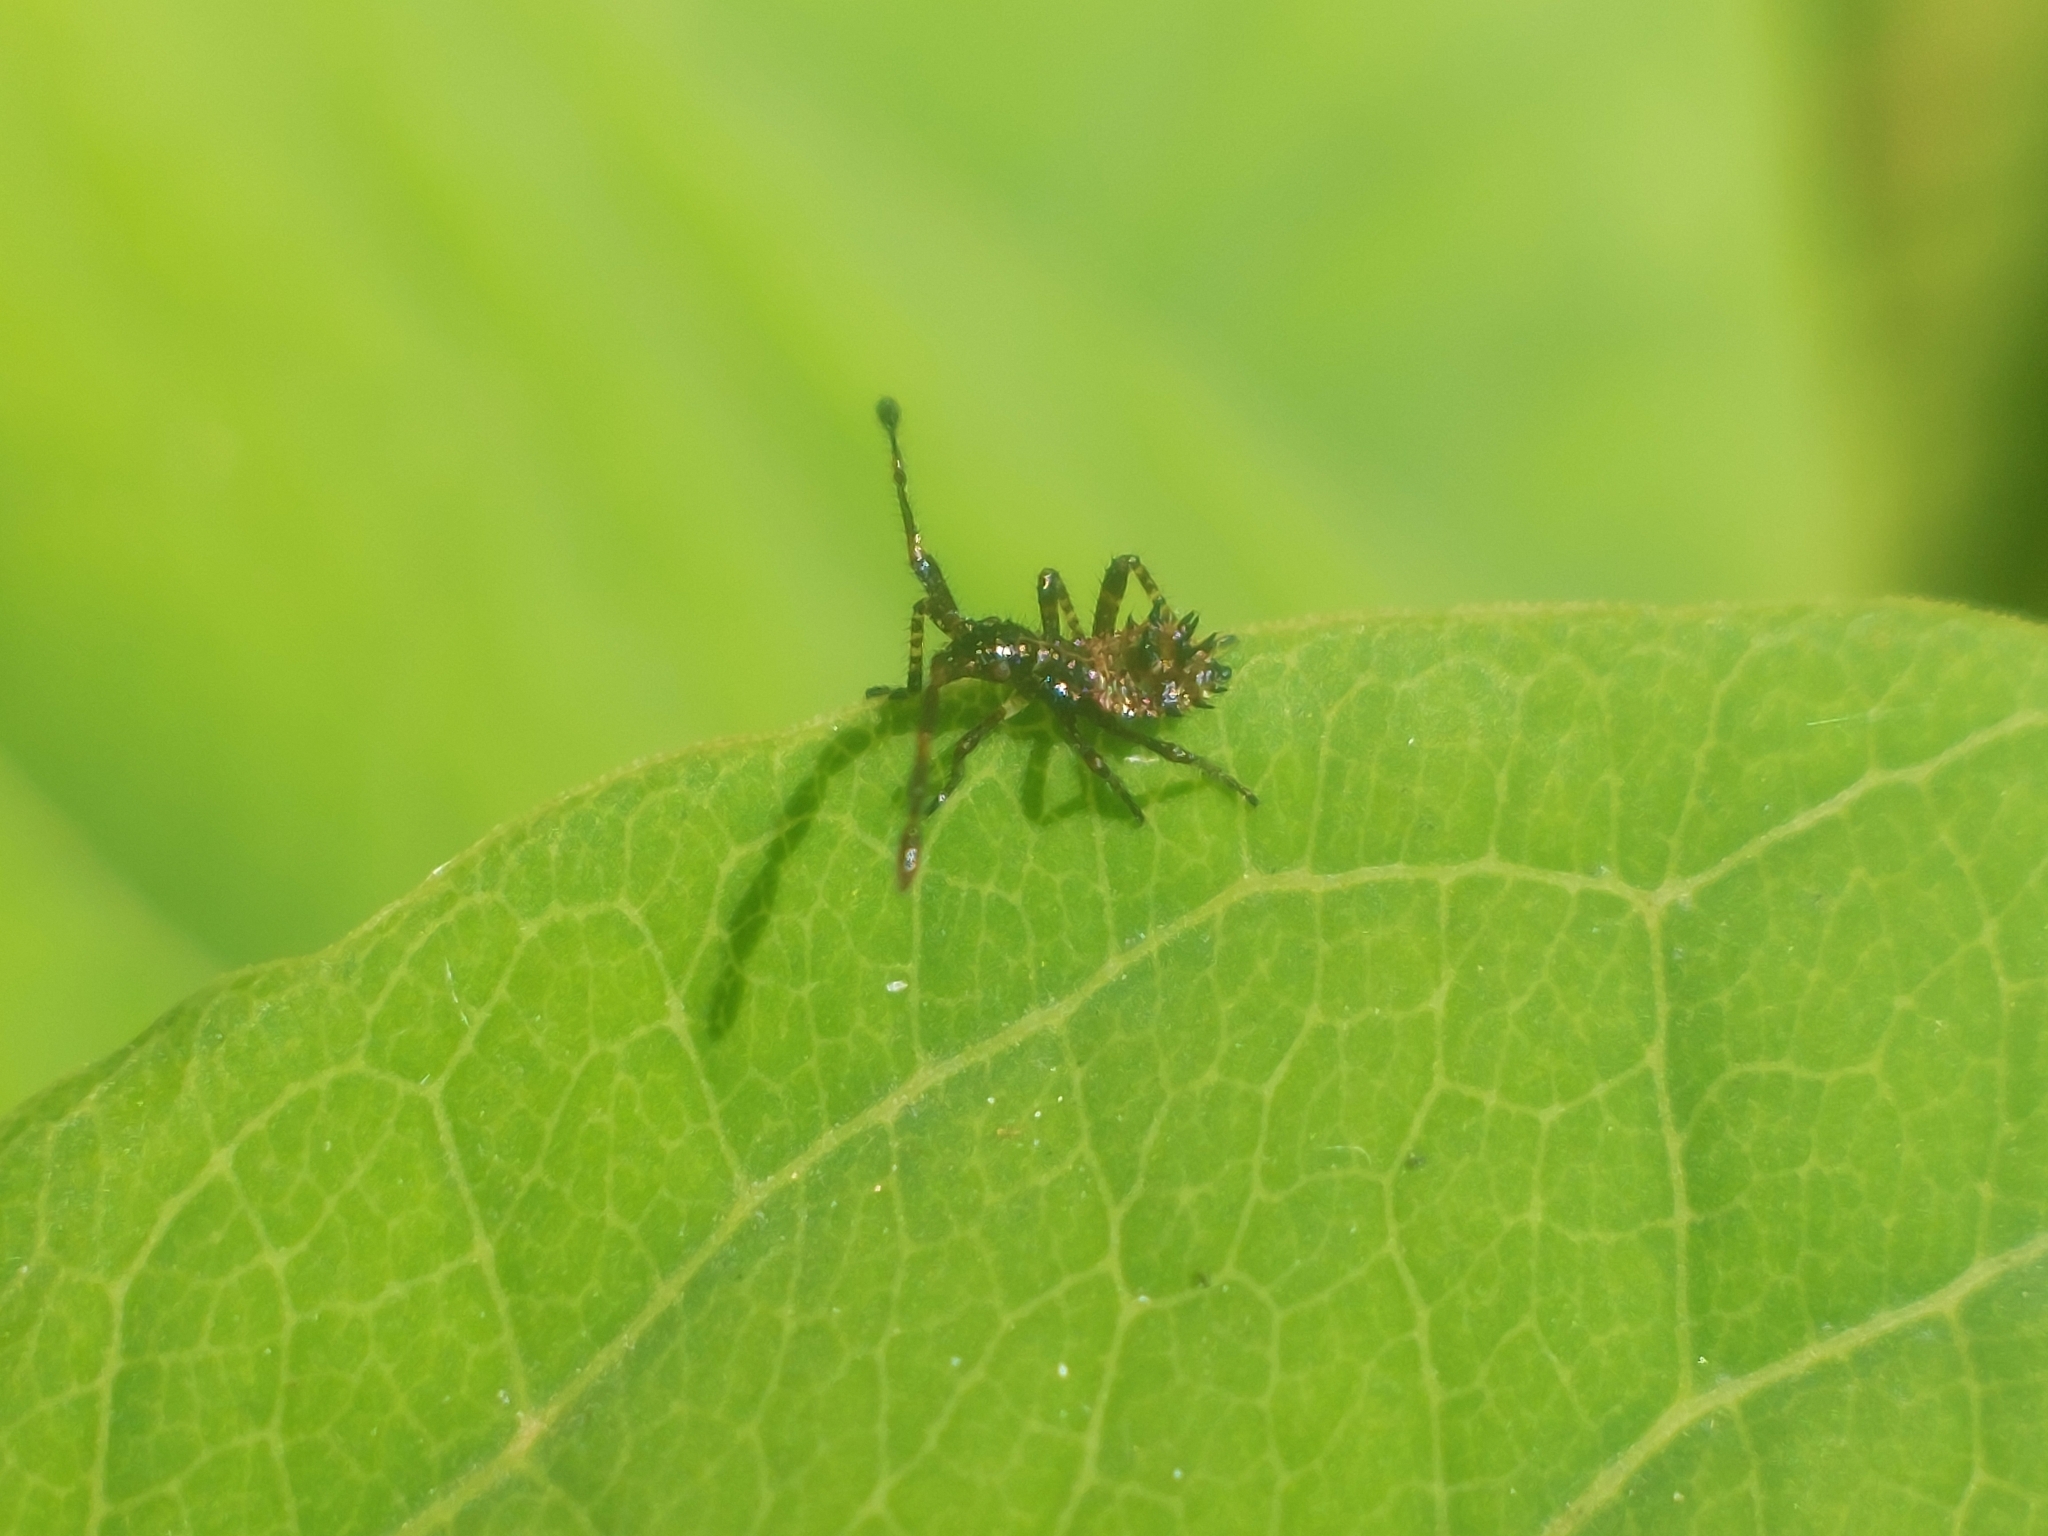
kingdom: Animalia
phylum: Arthropoda
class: Insecta
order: Hemiptera
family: Coreidae
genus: Coreus
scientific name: Coreus marginatus
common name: Dock bug
